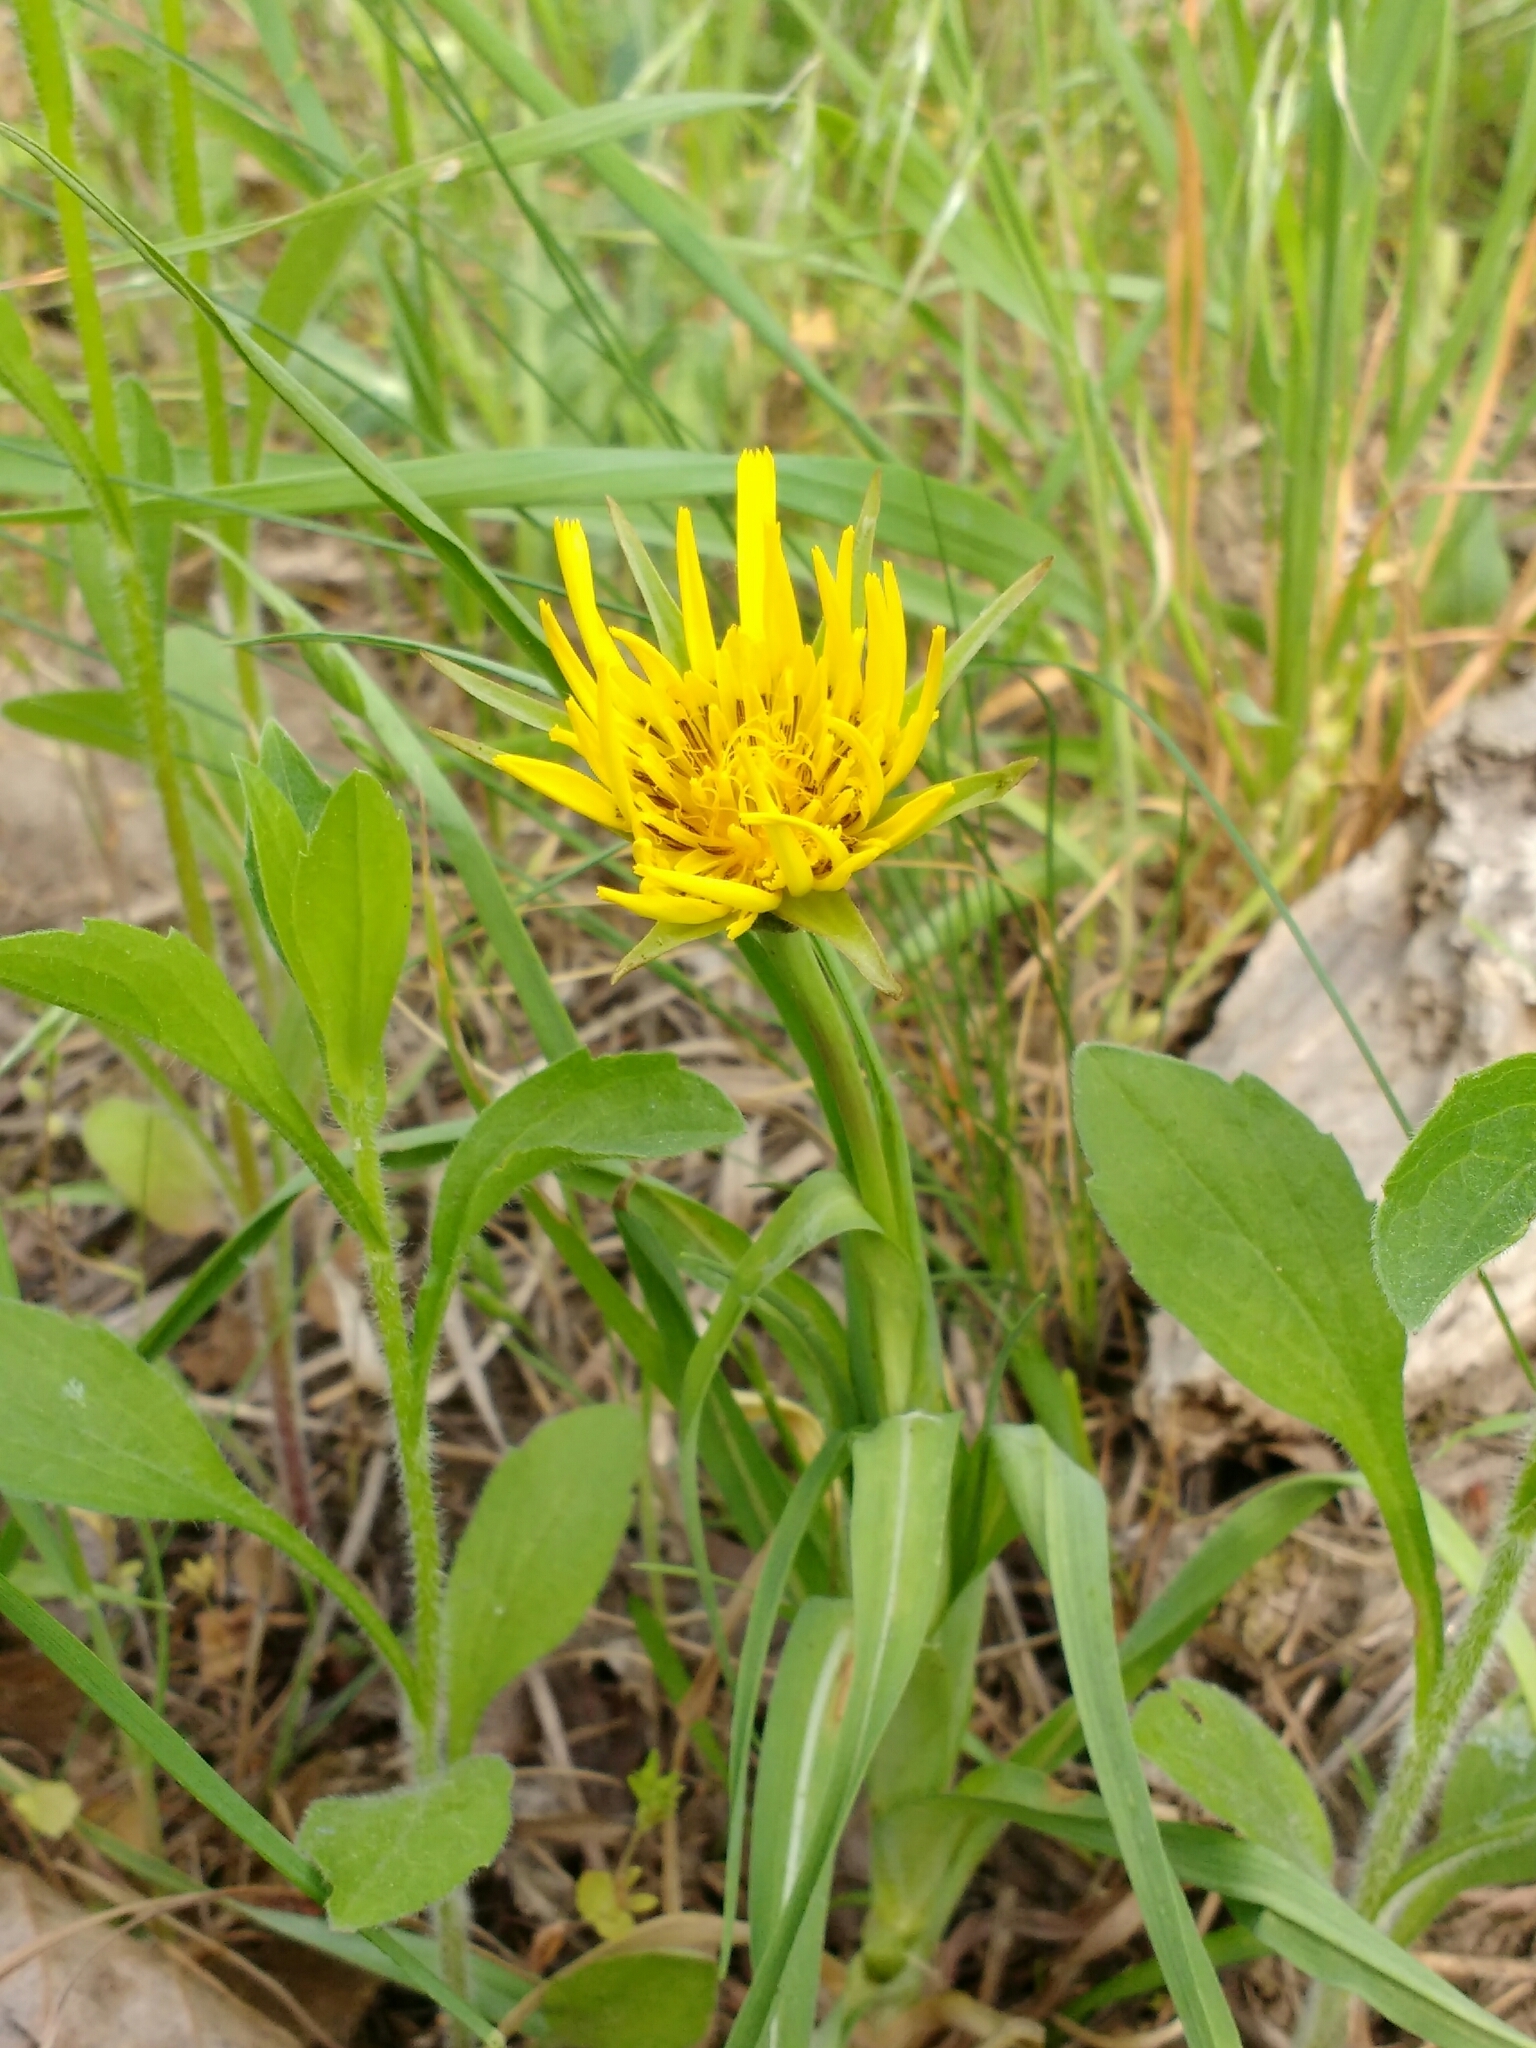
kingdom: Plantae
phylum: Tracheophyta
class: Magnoliopsida
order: Asterales
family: Asteraceae
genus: Tragopogon
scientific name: Tragopogon orientalis
